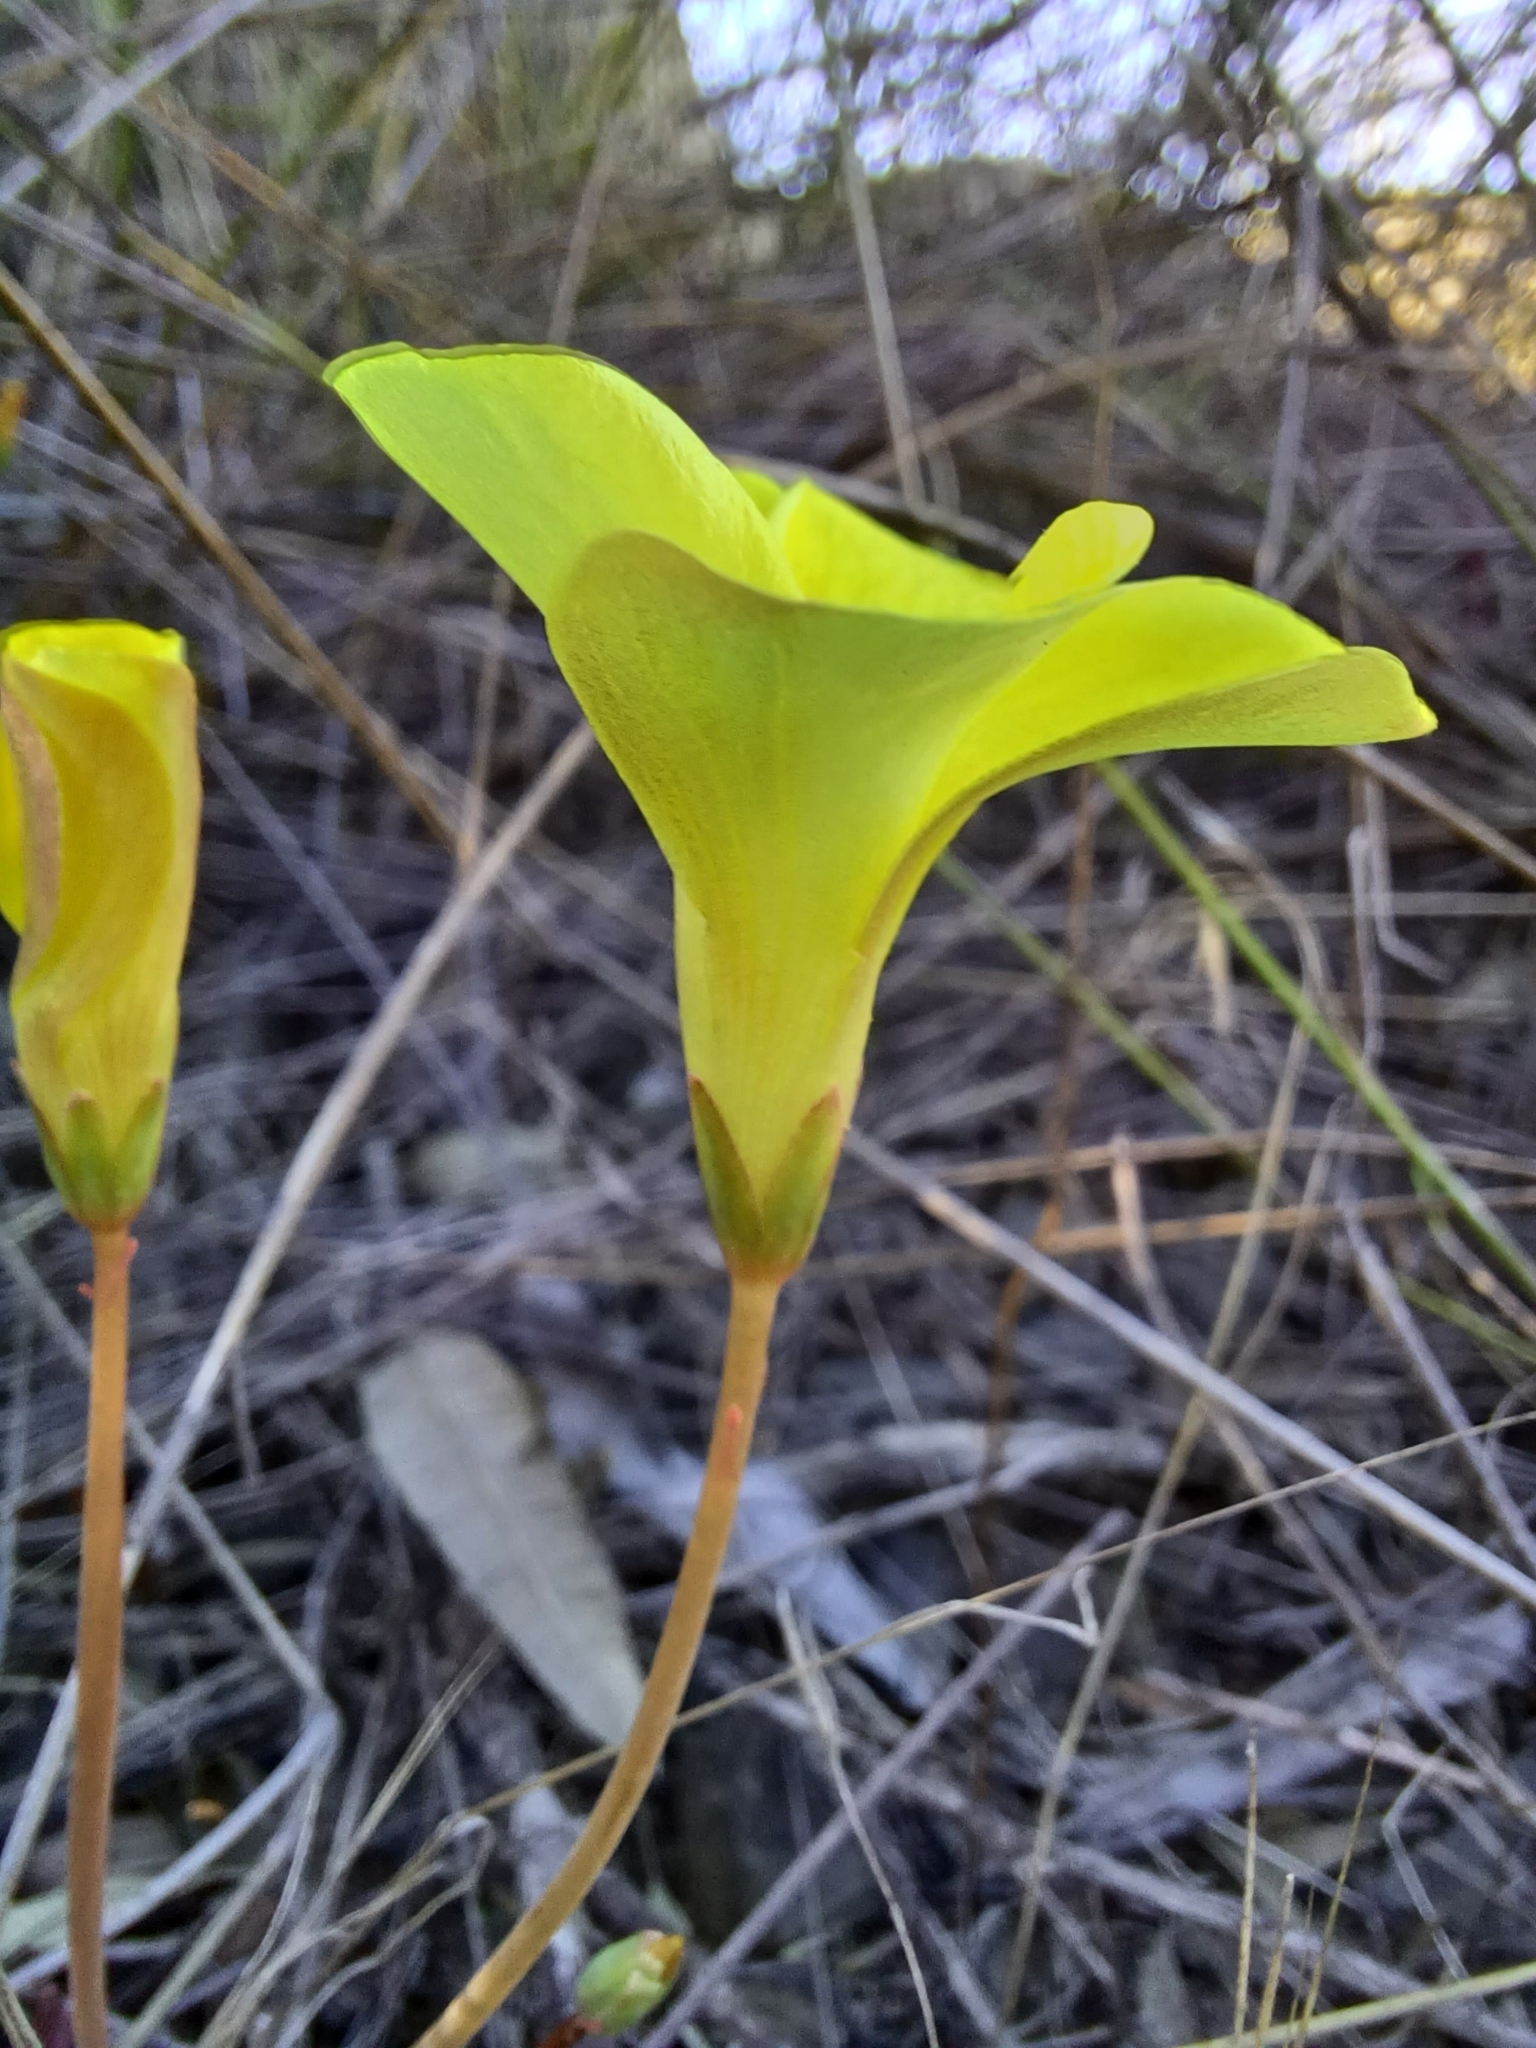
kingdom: Plantae
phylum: Tracheophyta
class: Magnoliopsida
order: Oxalidales
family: Oxalidaceae
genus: Oxalis
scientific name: Oxalis flava
